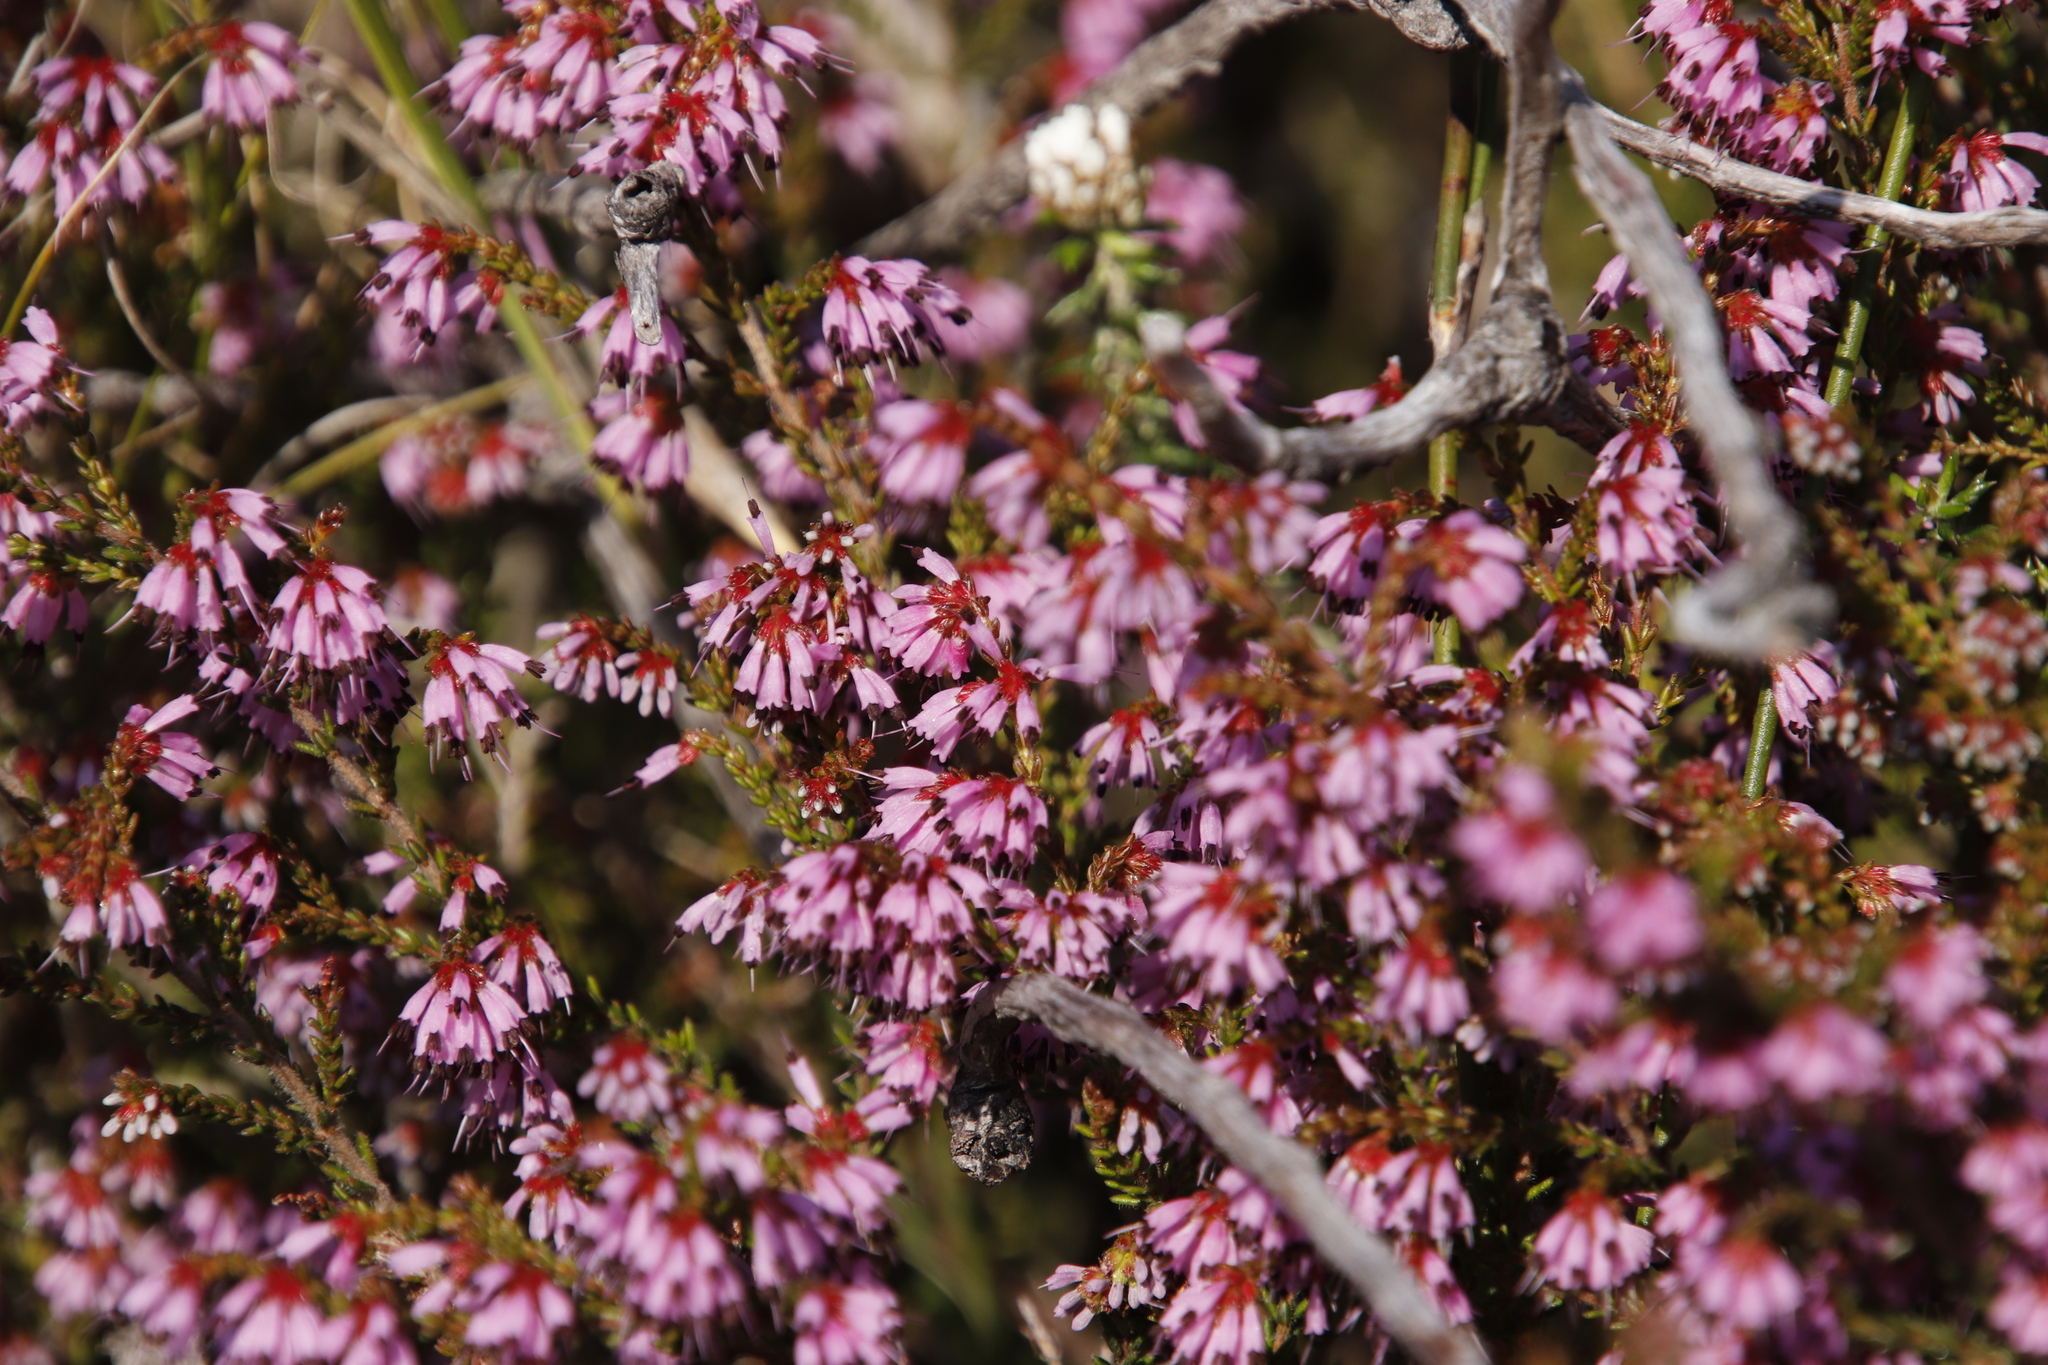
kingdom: Plantae
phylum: Tracheophyta
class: Magnoliopsida
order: Ericales
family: Ericaceae
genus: Erica
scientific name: Erica glabella
